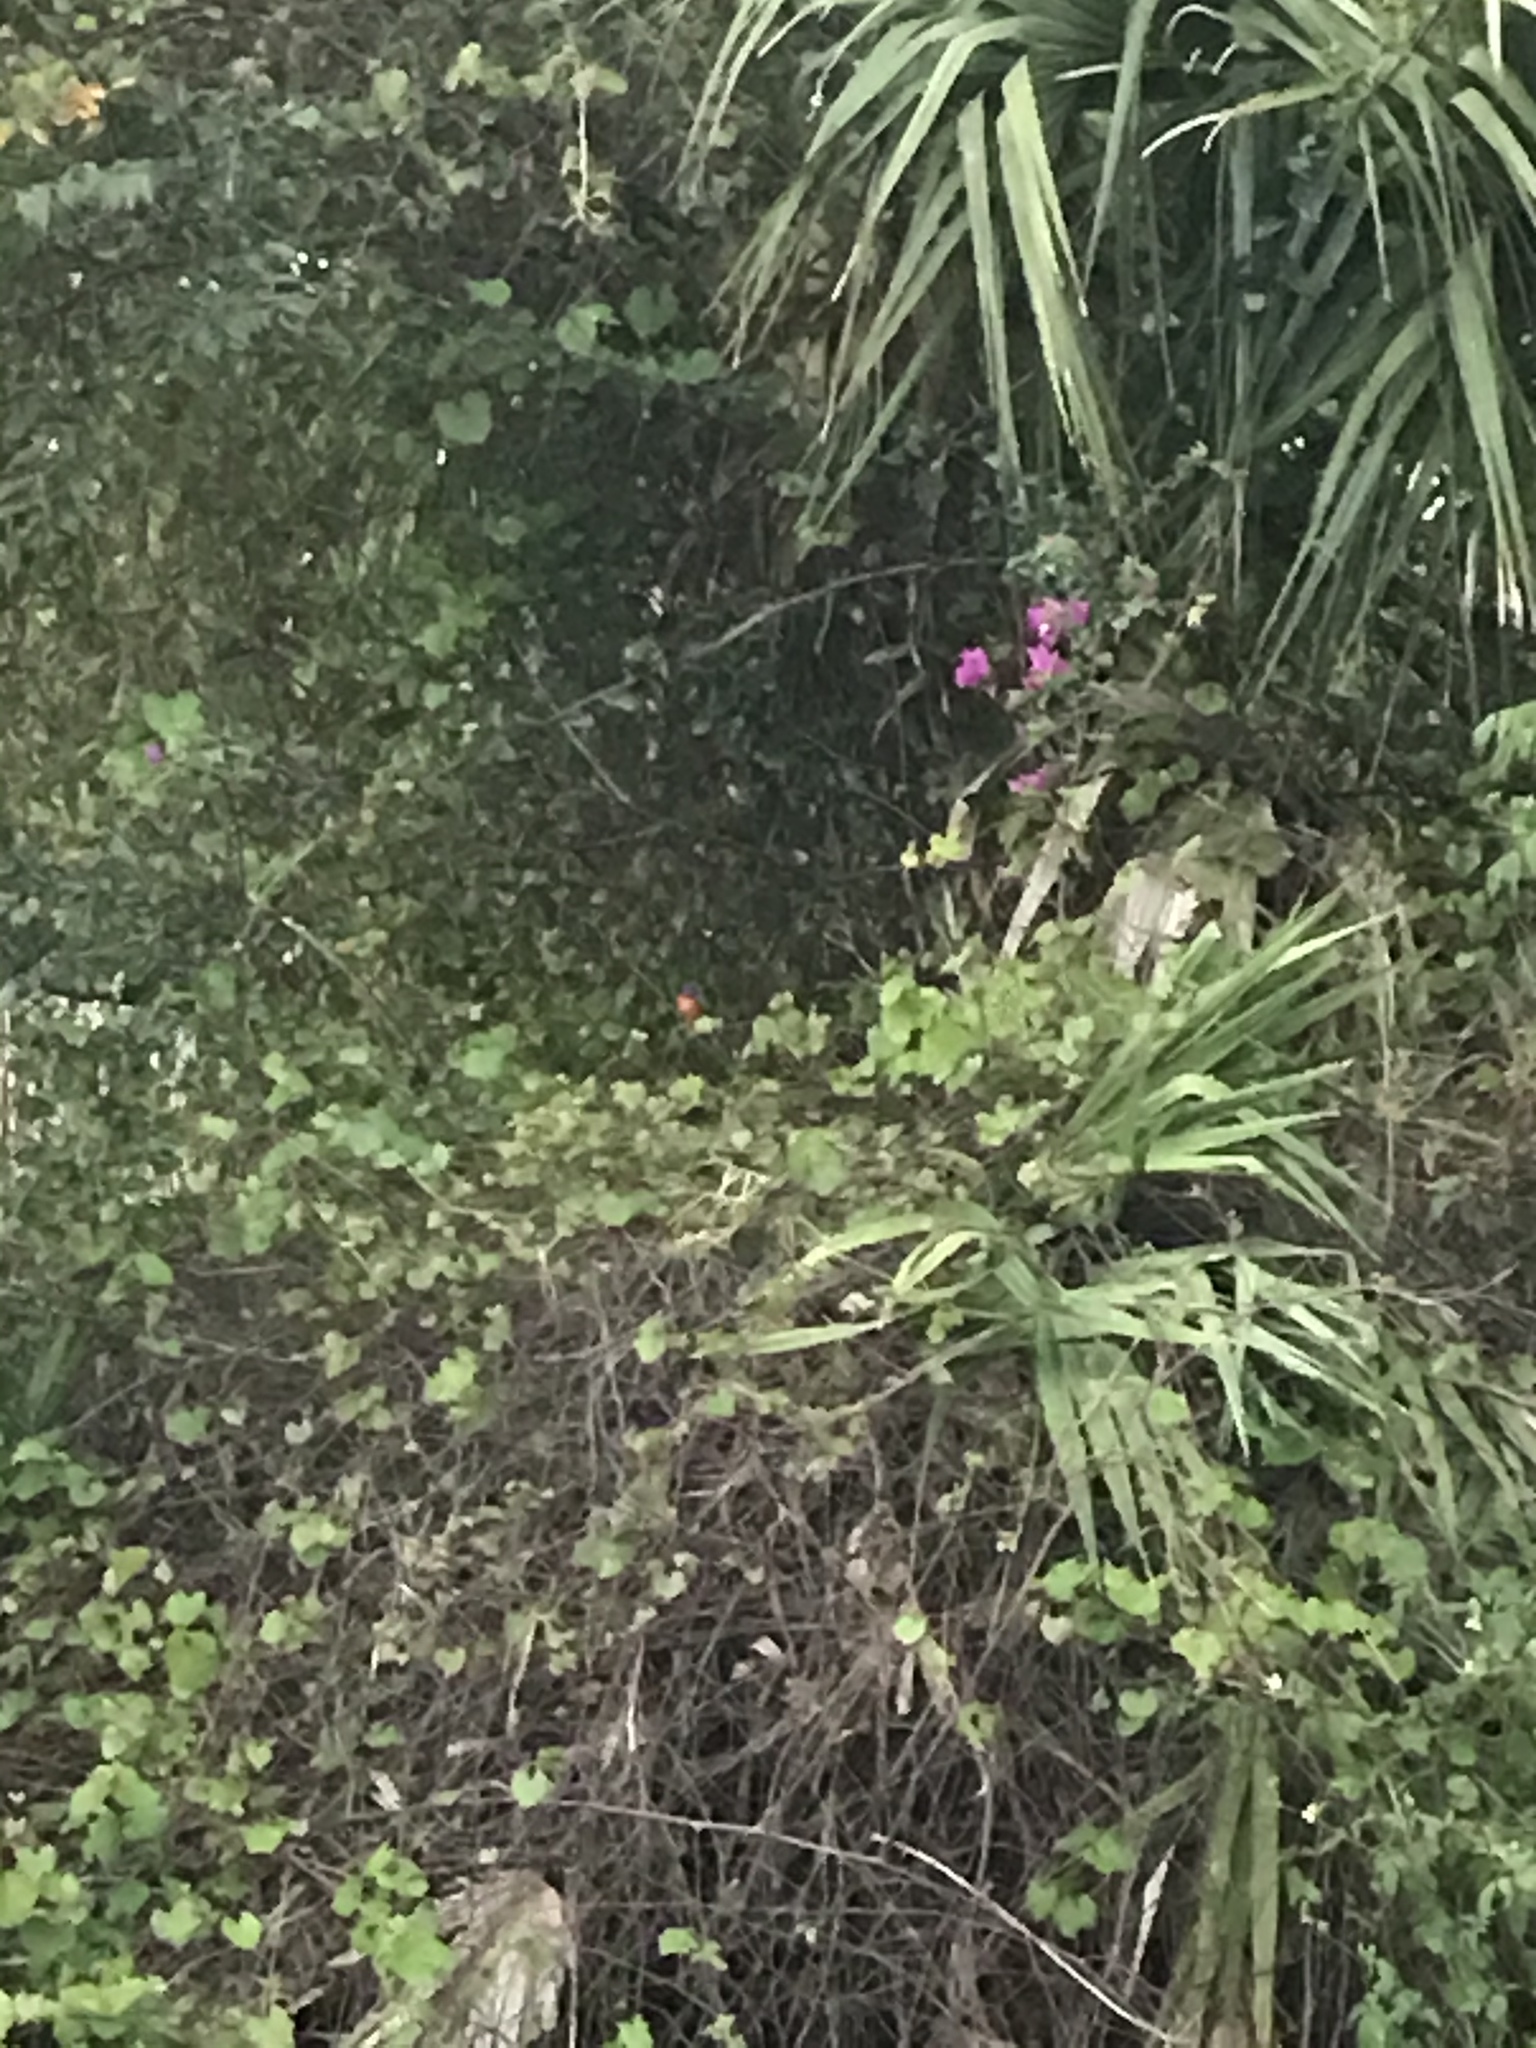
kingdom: Animalia
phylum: Chordata
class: Aves
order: Passeriformes
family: Cardinalidae
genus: Passerina
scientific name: Passerina ciris
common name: Painted bunting
